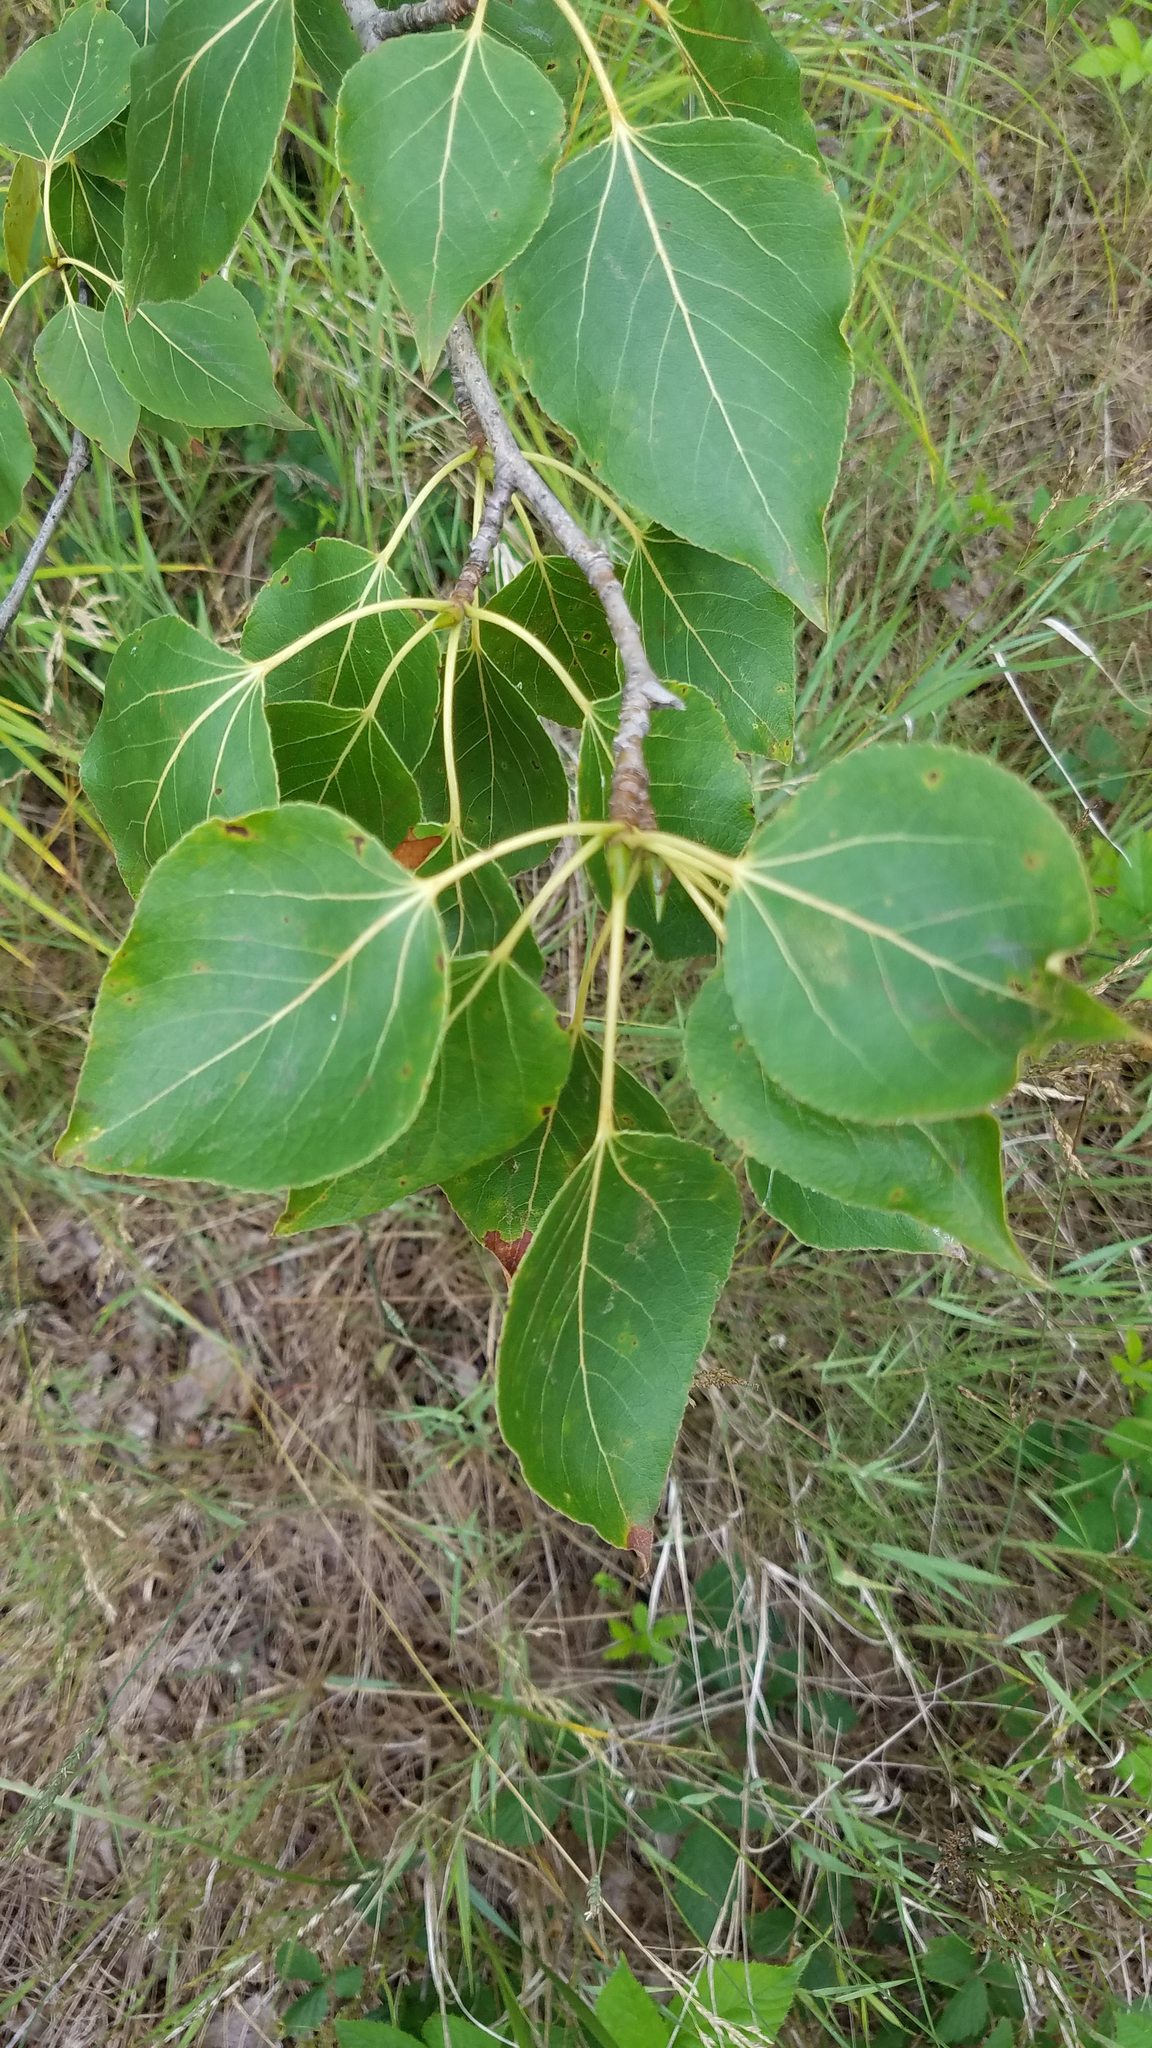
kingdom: Plantae
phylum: Tracheophyta
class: Magnoliopsida
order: Malpighiales
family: Salicaceae
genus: Populus
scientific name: Populus balsamifera
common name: Balsam poplar
